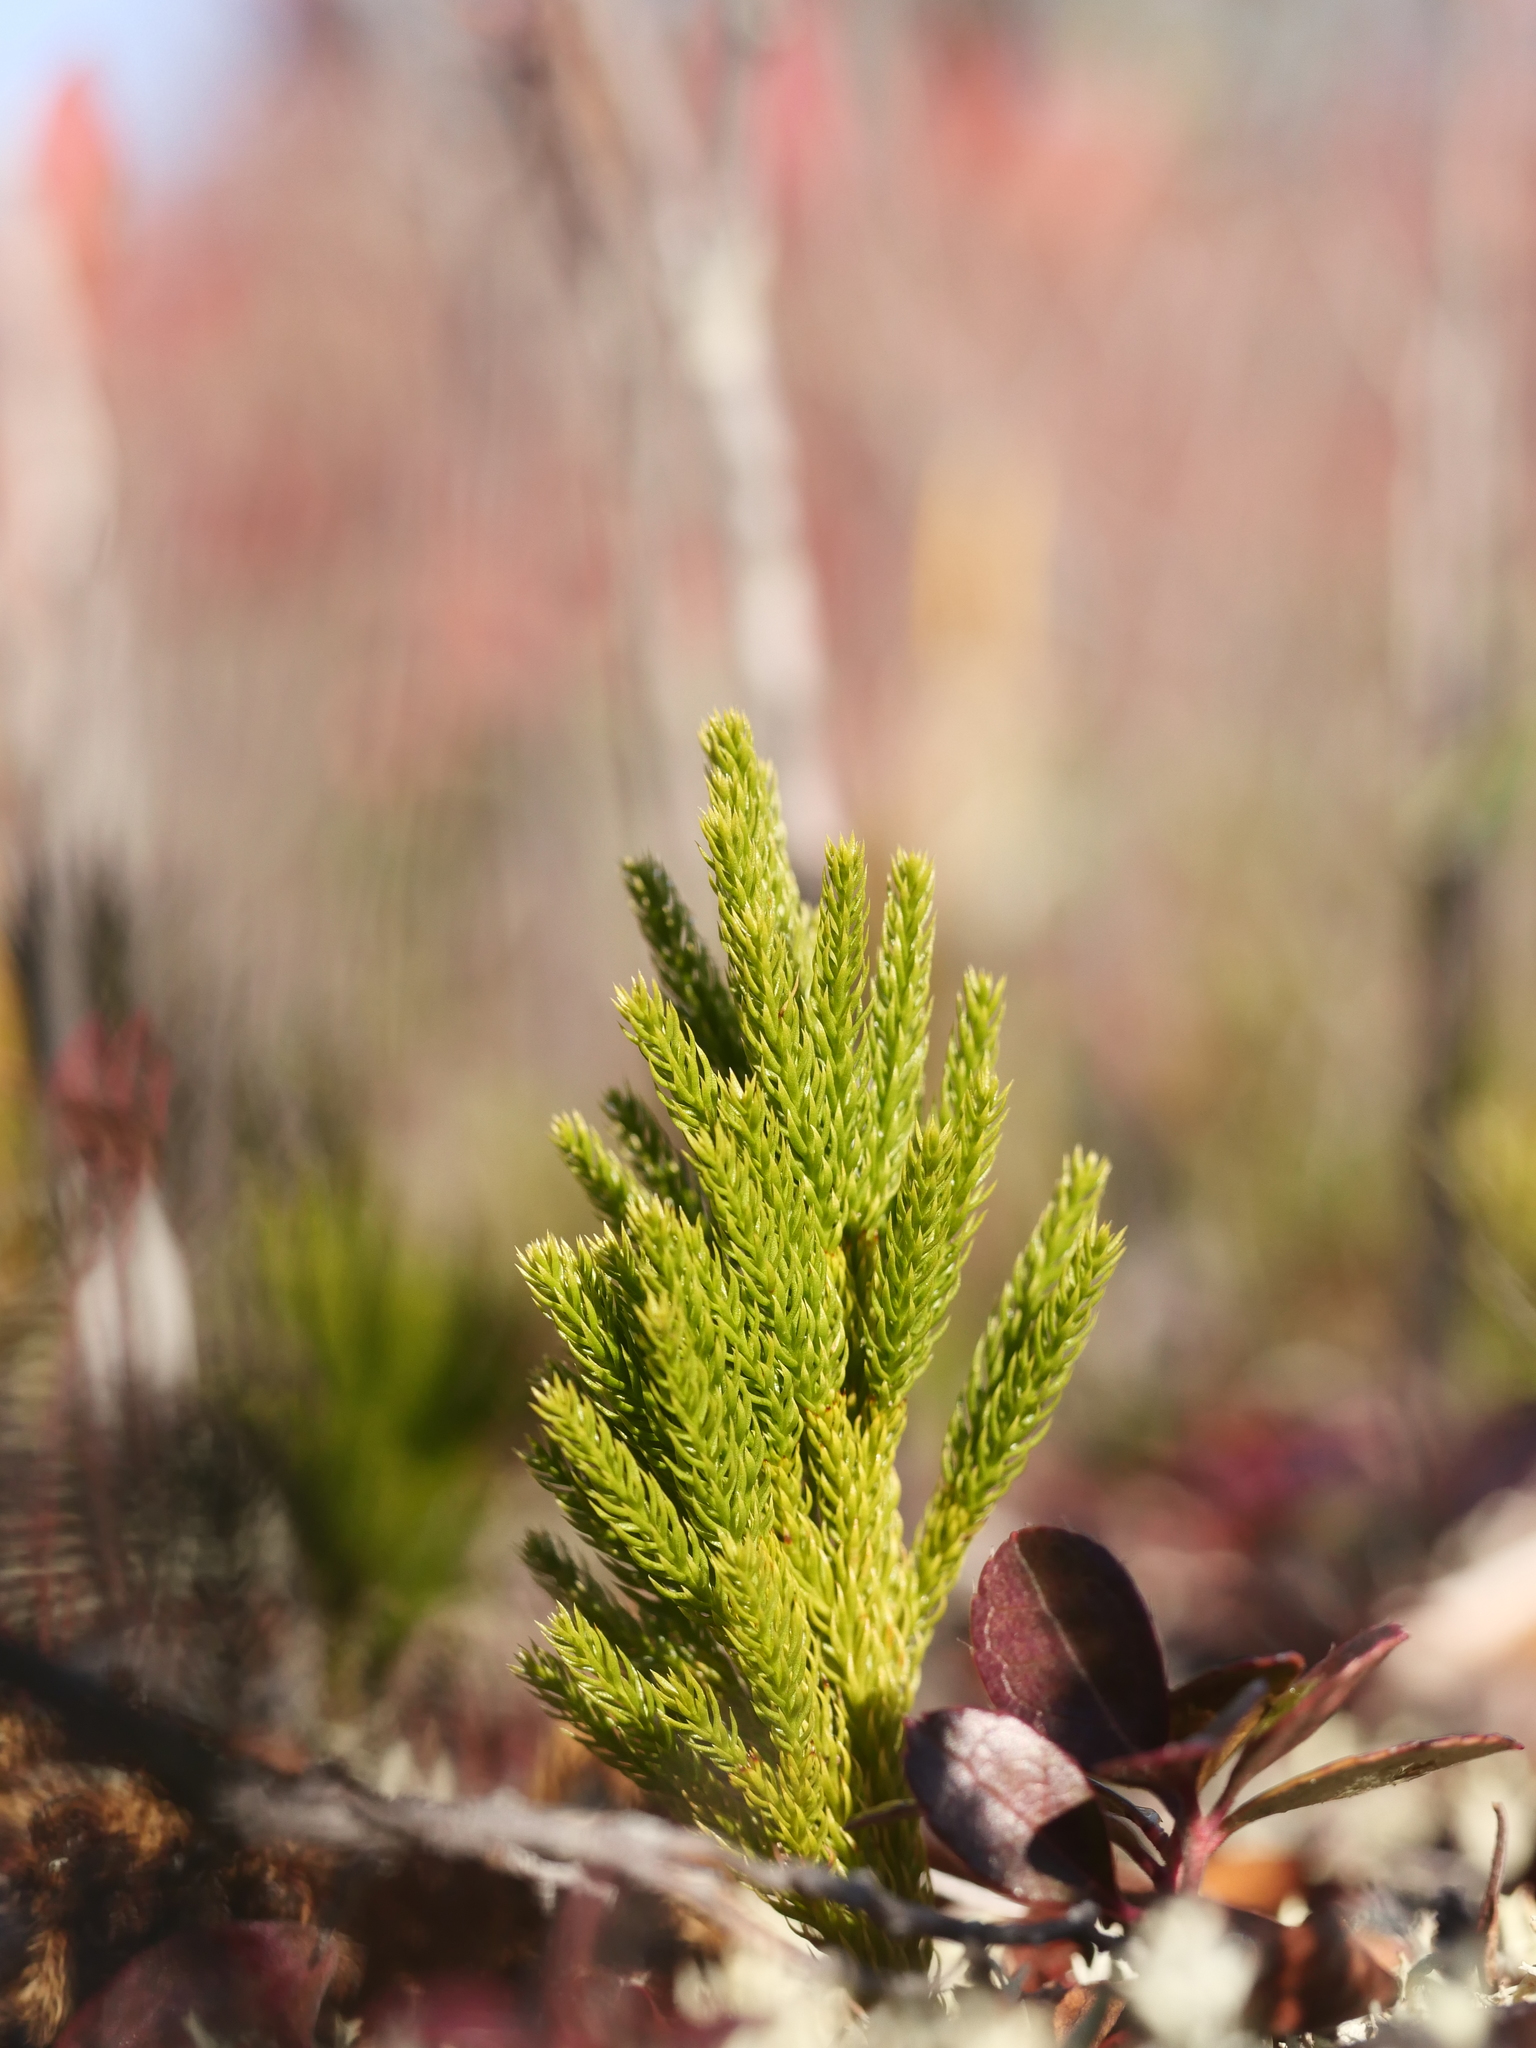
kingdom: Plantae
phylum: Tracheophyta
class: Lycopodiopsida
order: Lycopodiales
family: Lycopodiaceae
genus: Dendrolycopodium
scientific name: Dendrolycopodium hickeyi
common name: Hickey's clubmoss
